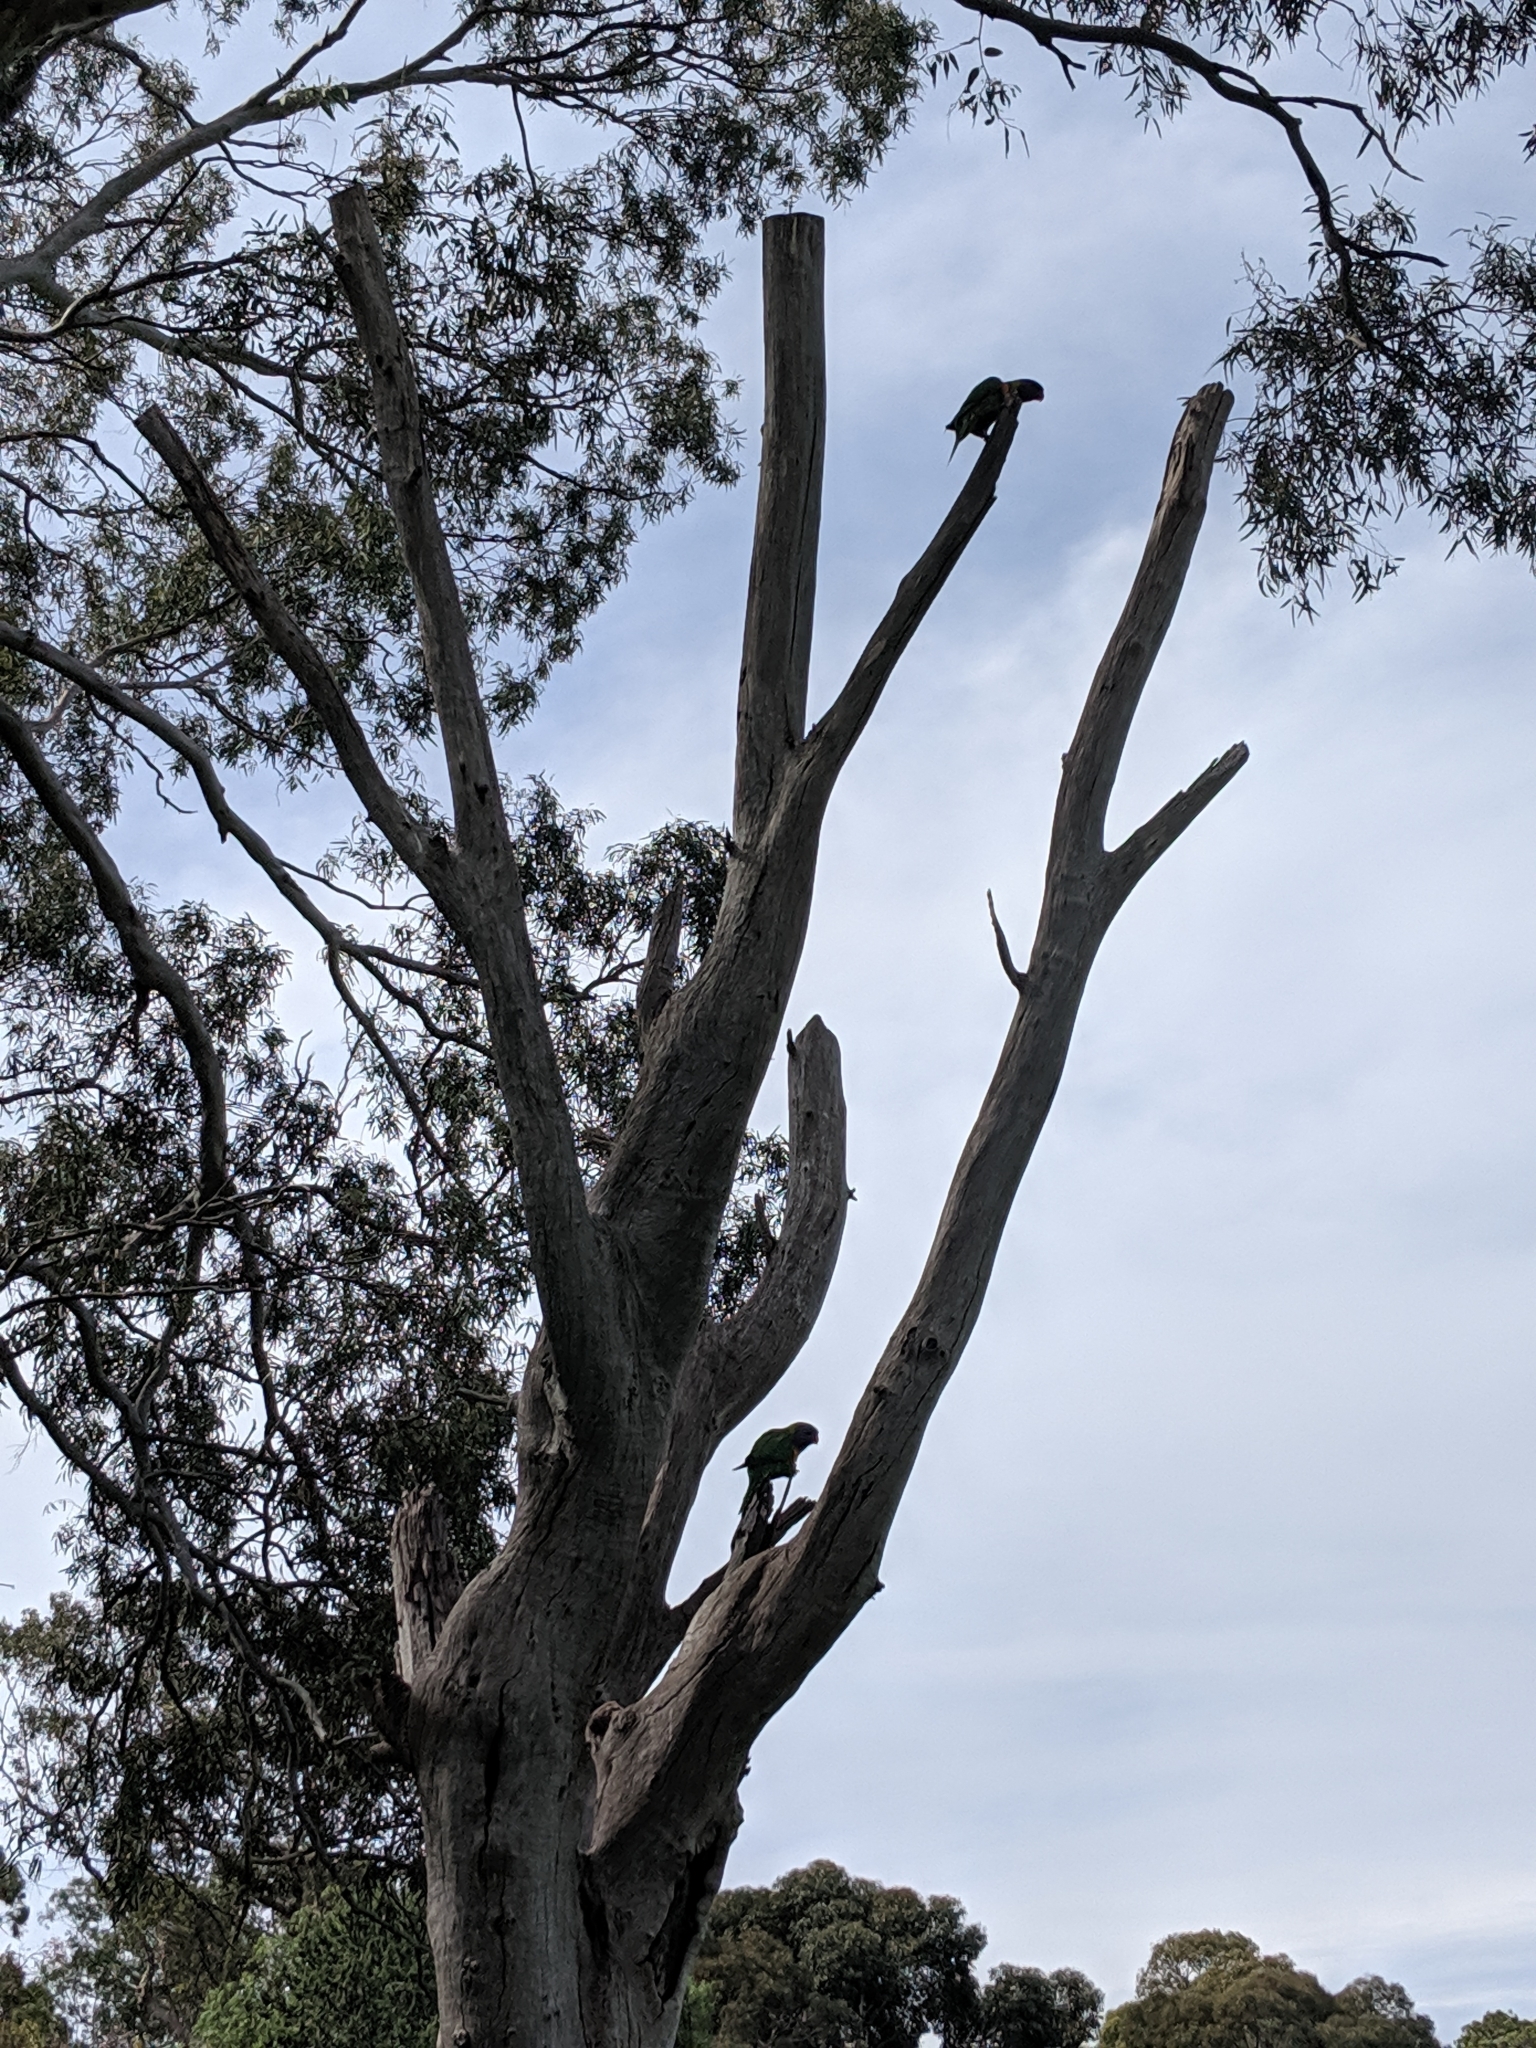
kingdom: Animalia
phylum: Chordata
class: Aves
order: Psittaciformes
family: Psittacidae
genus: Trichoglossus
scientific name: Trichoglossus haematodus
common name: Coconut lorikeet
